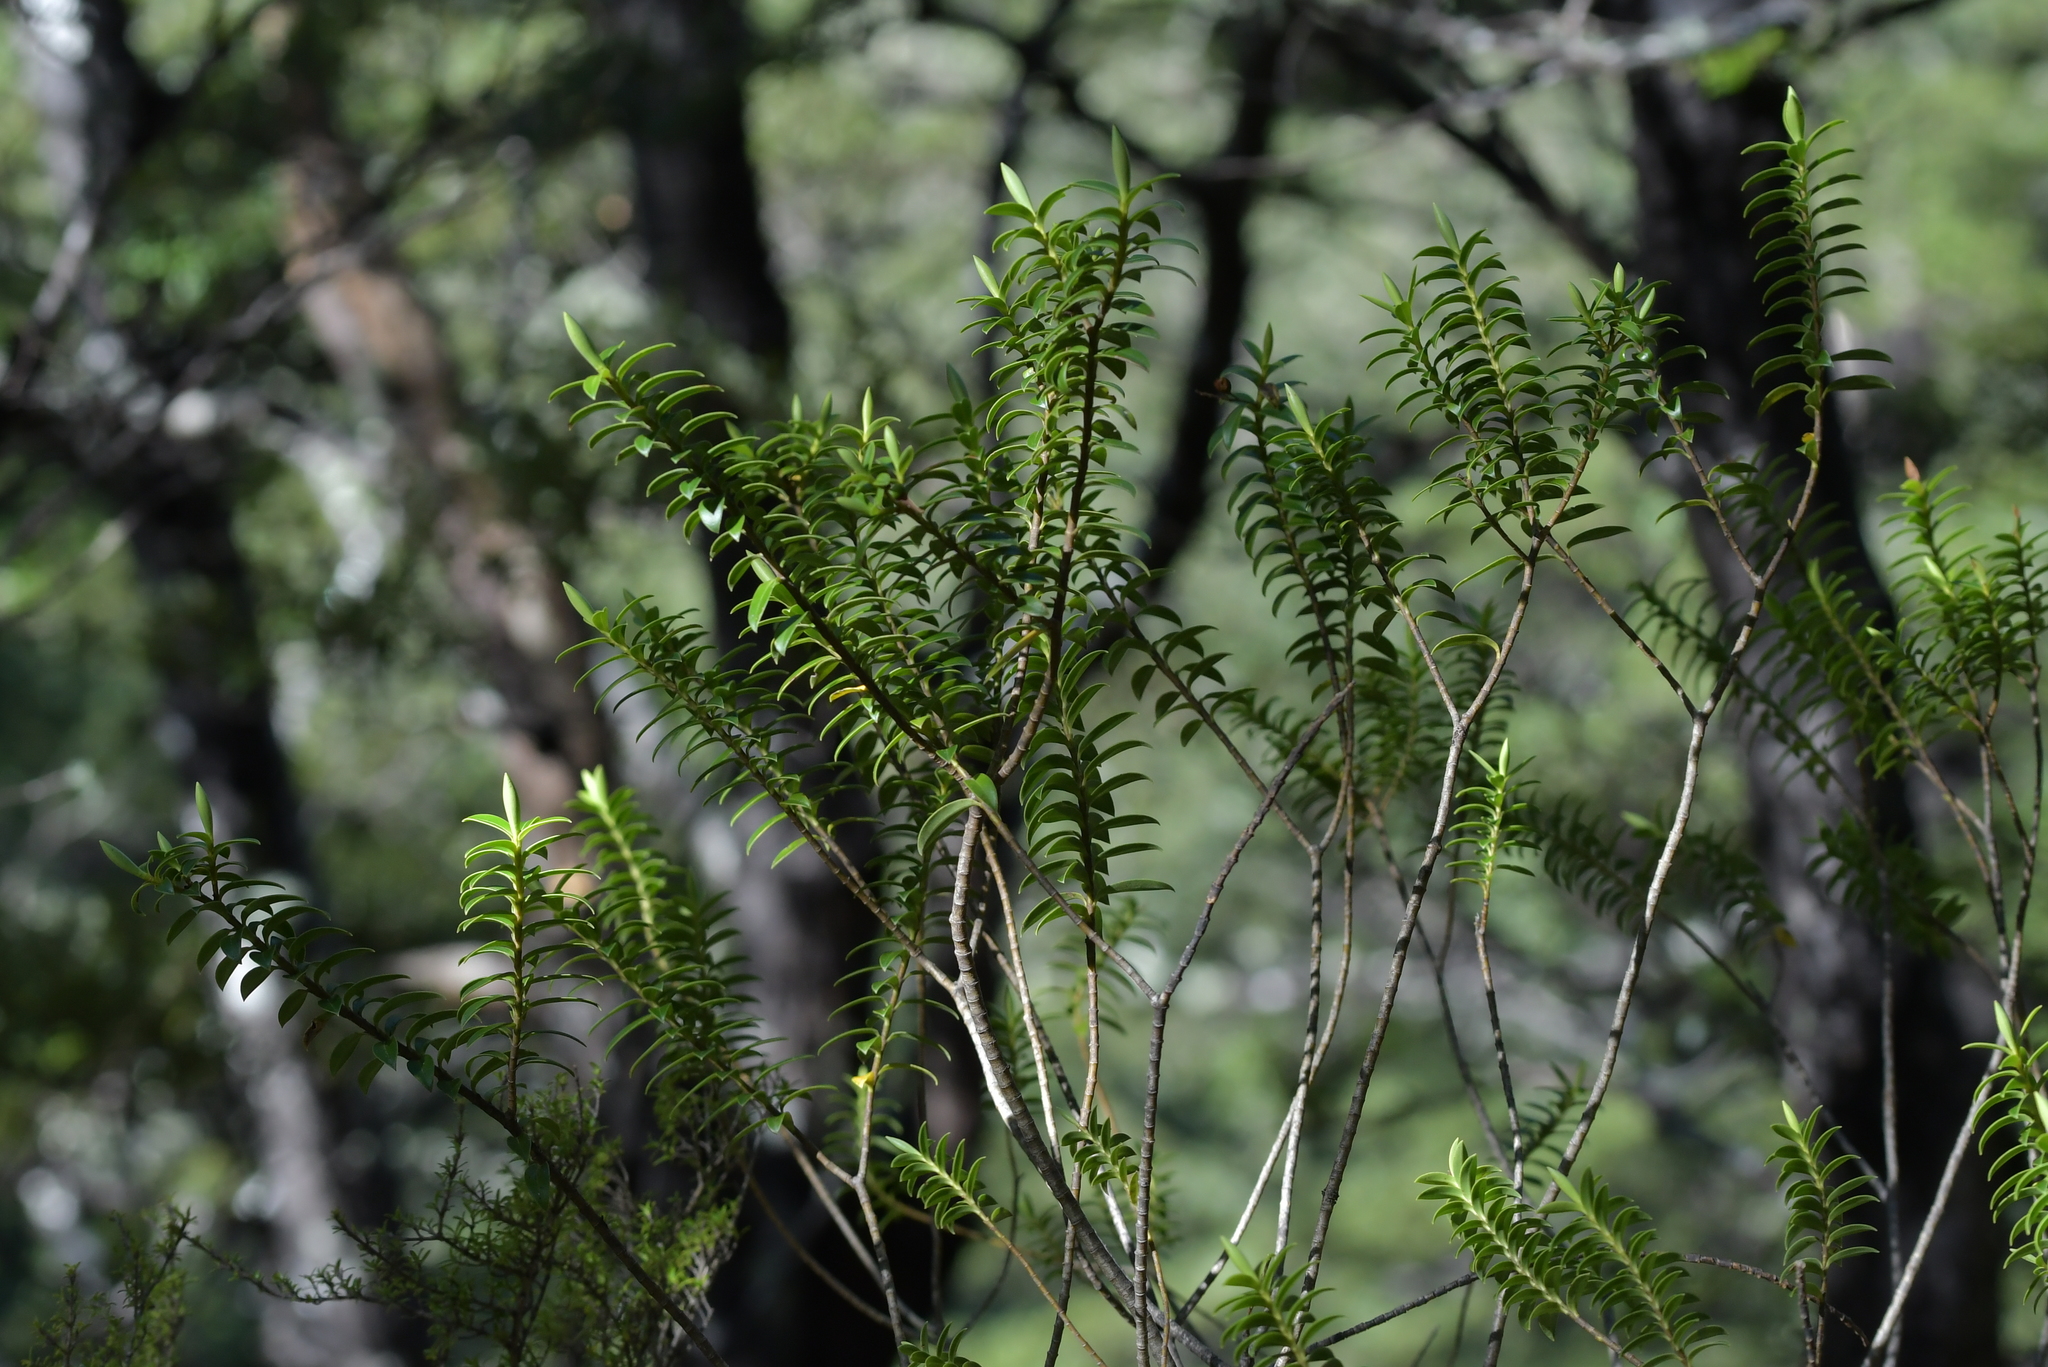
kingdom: Plantae
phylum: Tracheophyta
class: Magnoliopsida
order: Lamiales
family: Plantaginaceae
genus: Veronica
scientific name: Veronica odora
